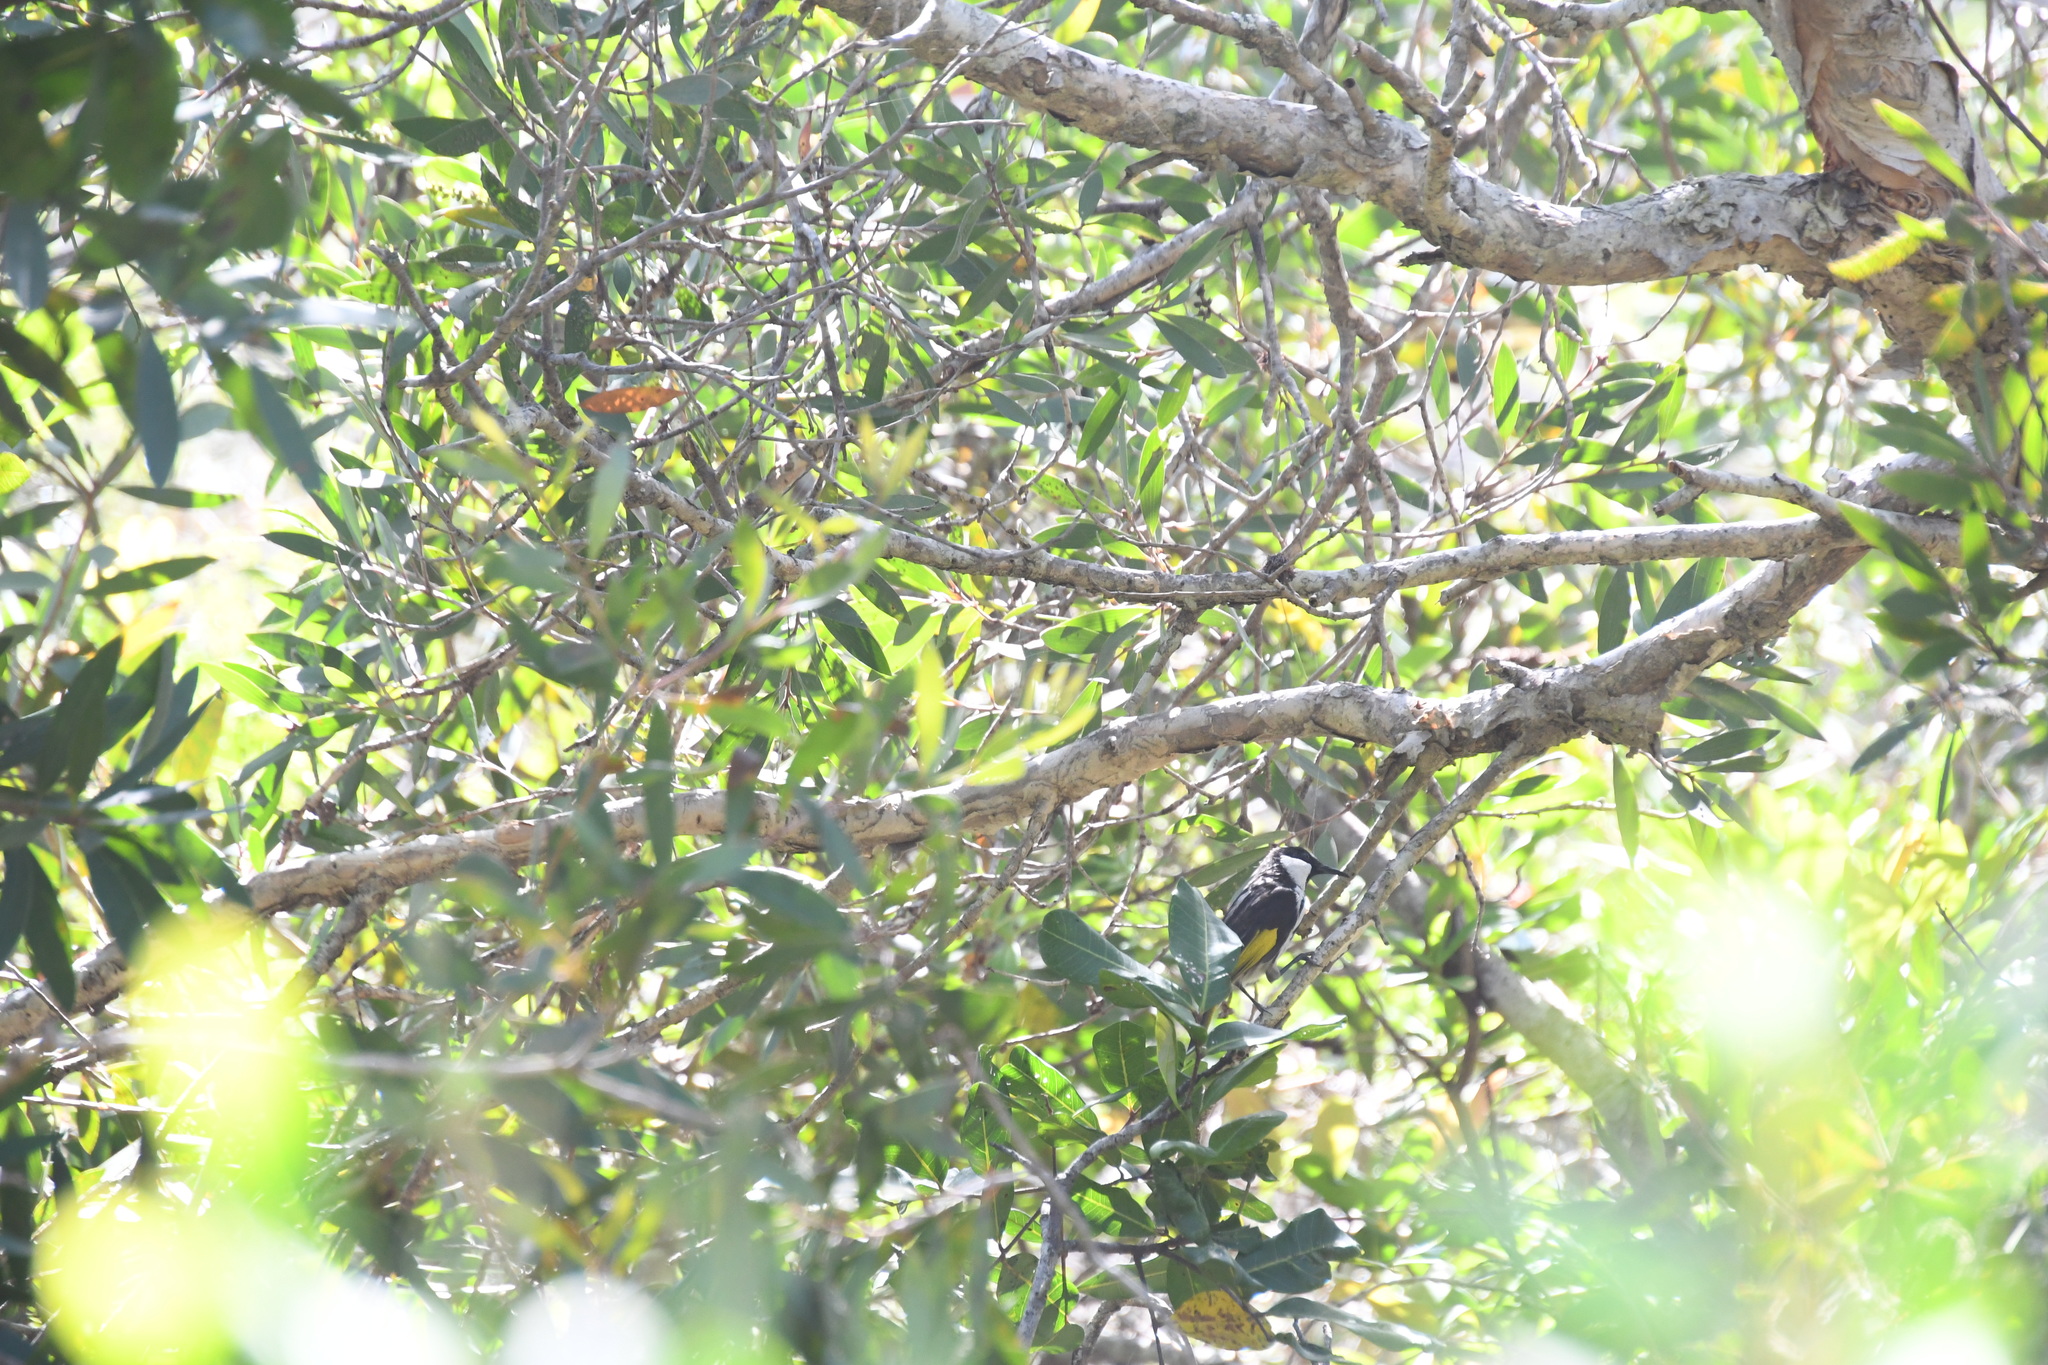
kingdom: Animalia
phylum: Chordata
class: Aves
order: Passeriformes
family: Meliphagidae
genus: Phylidonyris
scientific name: Phylidonyris niger
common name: White-cheeked honeyeater
